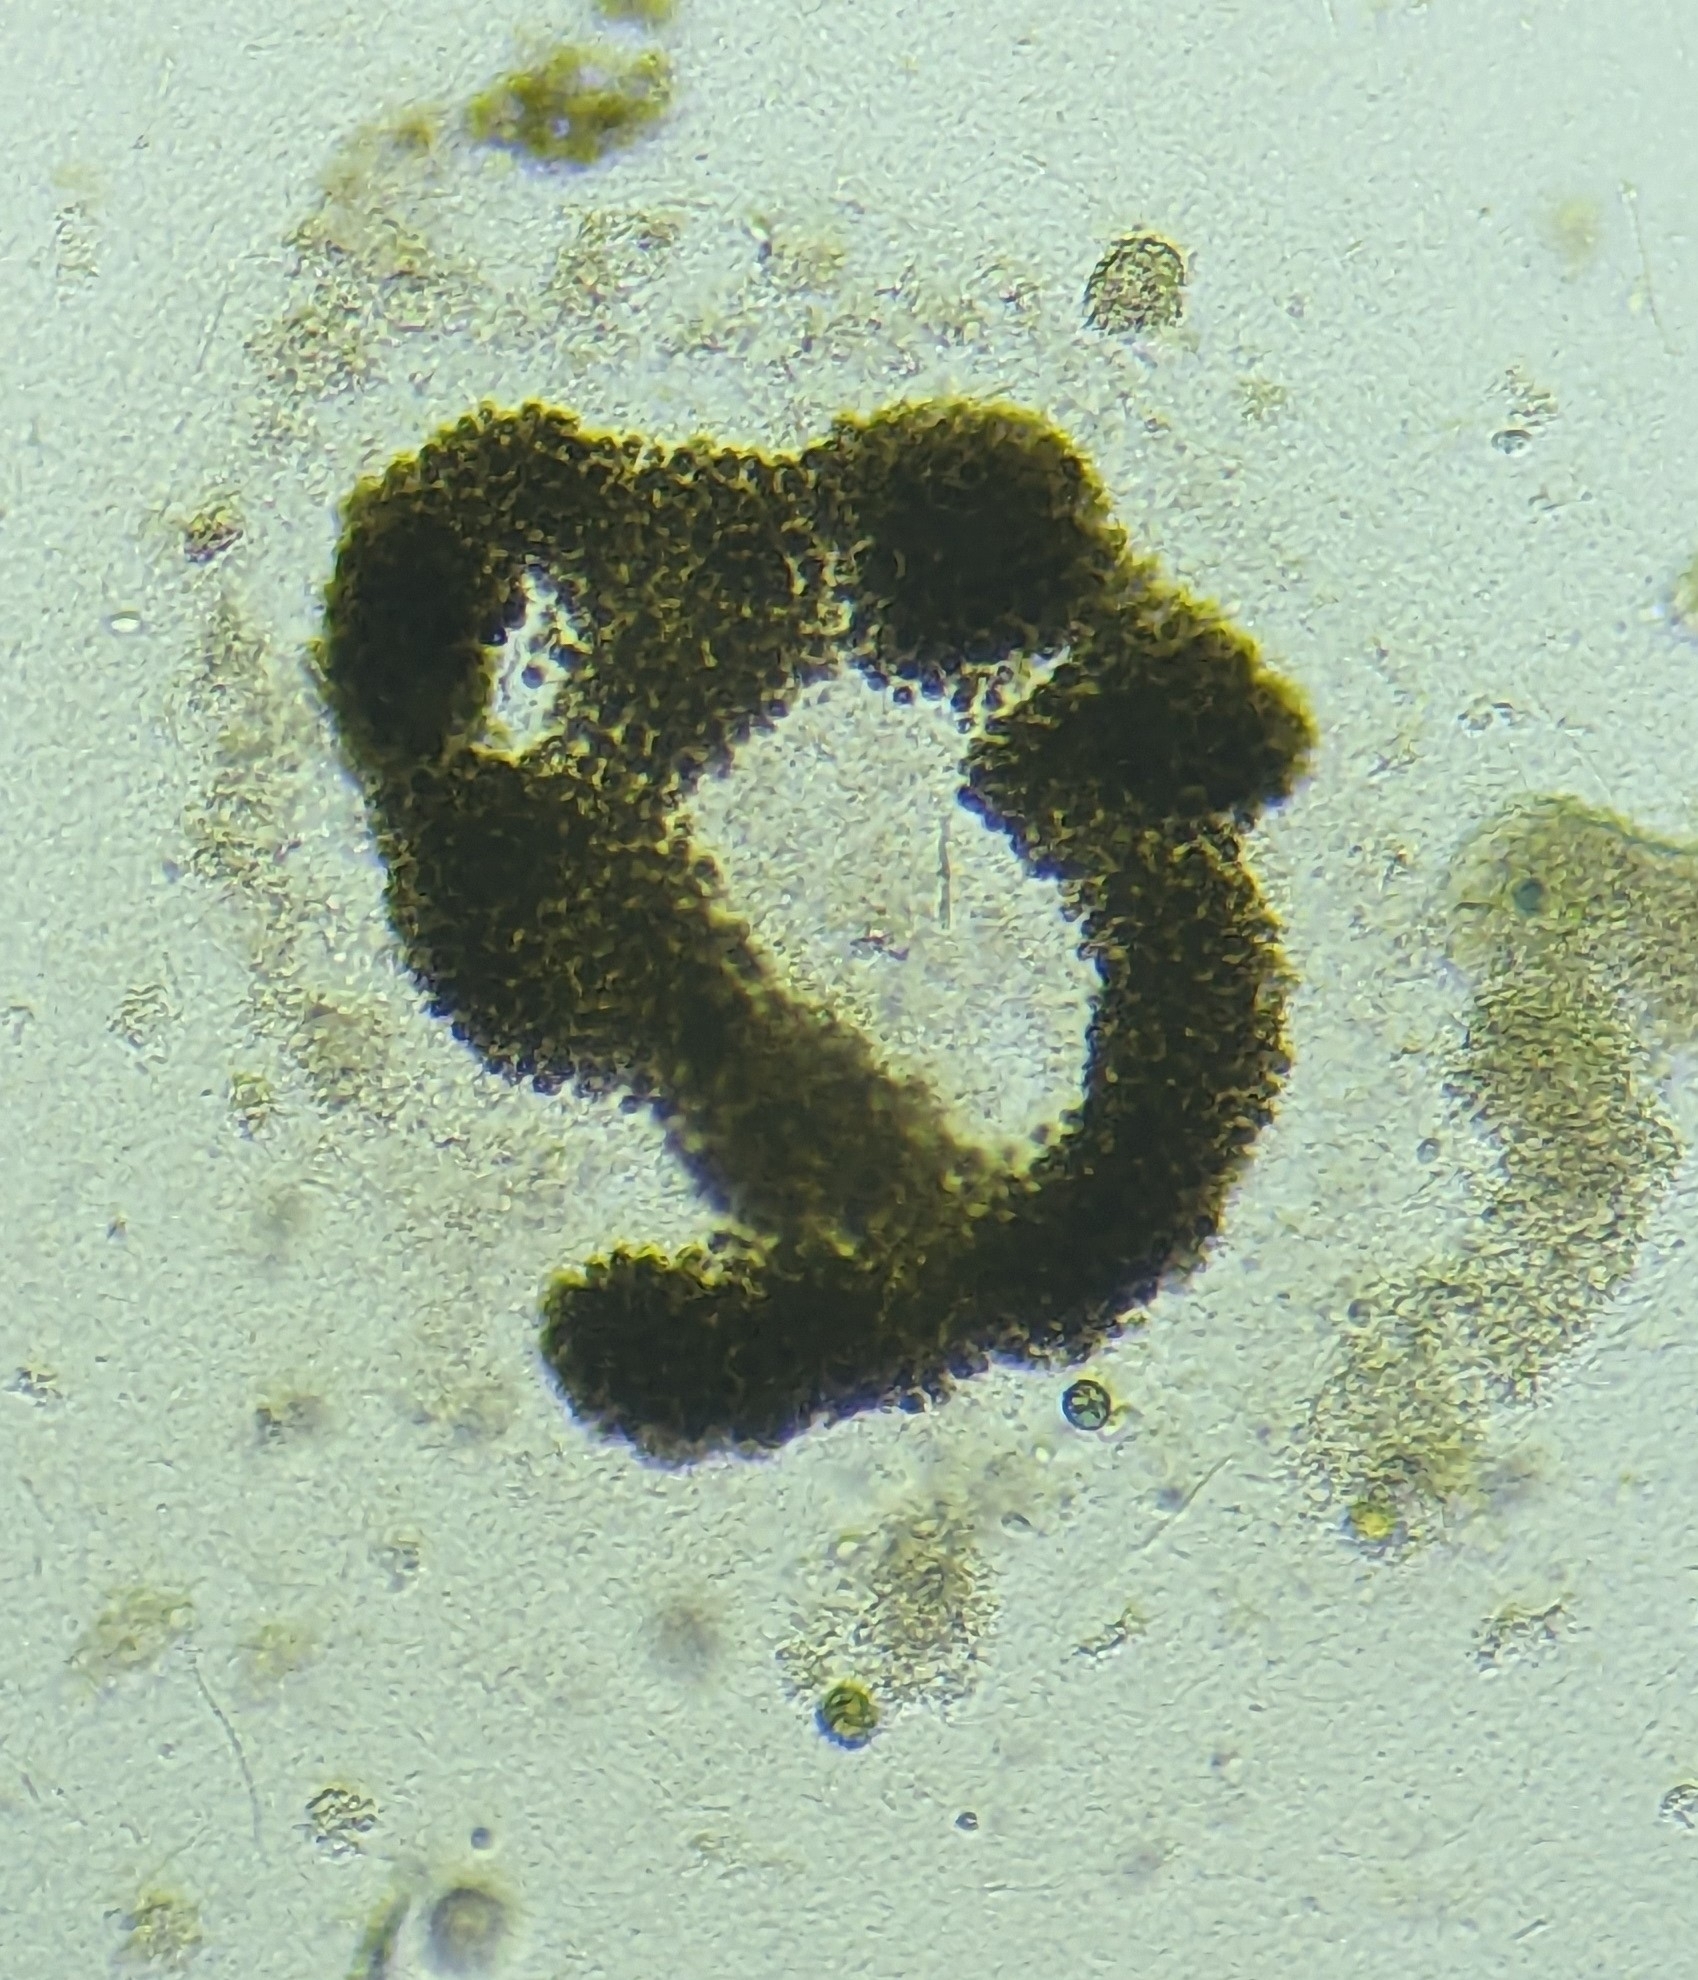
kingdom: Bacteria
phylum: Cyanobacteria
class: Cyanobacteriia
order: Cyanobacteriales
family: Microcystaceae
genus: Microcystis
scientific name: Microcystis aeruginosa
